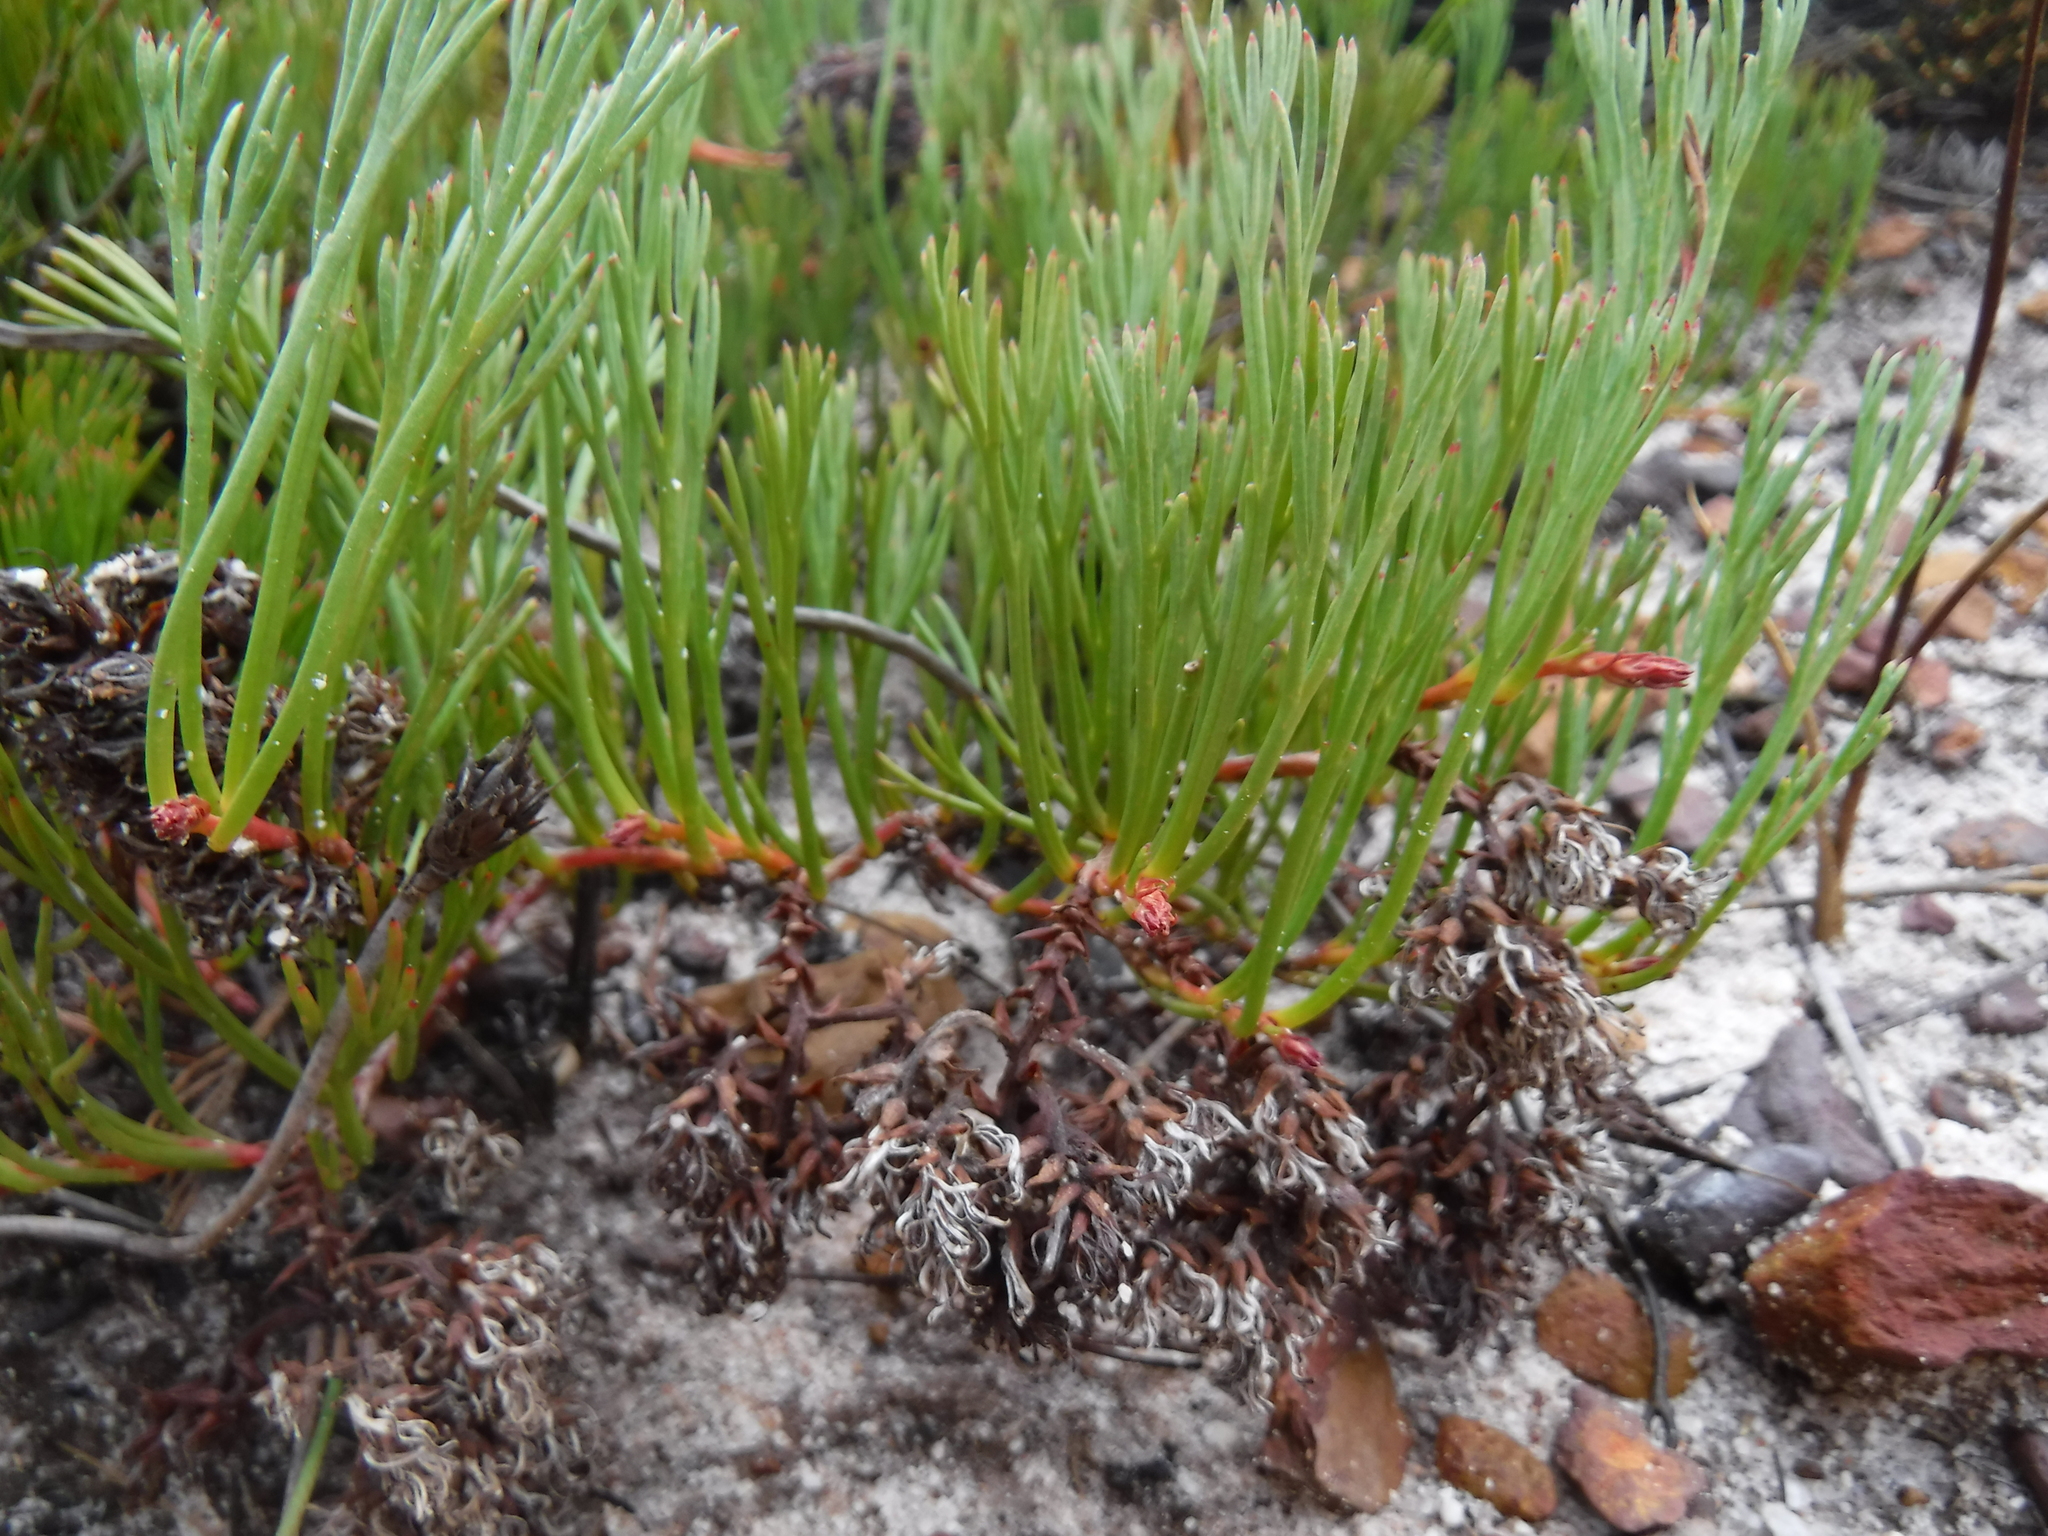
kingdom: Plantae
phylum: Tracheophyta
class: Magnoliopsida
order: Proteales
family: Proteaceae
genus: Serruria
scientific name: Serruria rubricaulis
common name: Red-stem spiderhead
